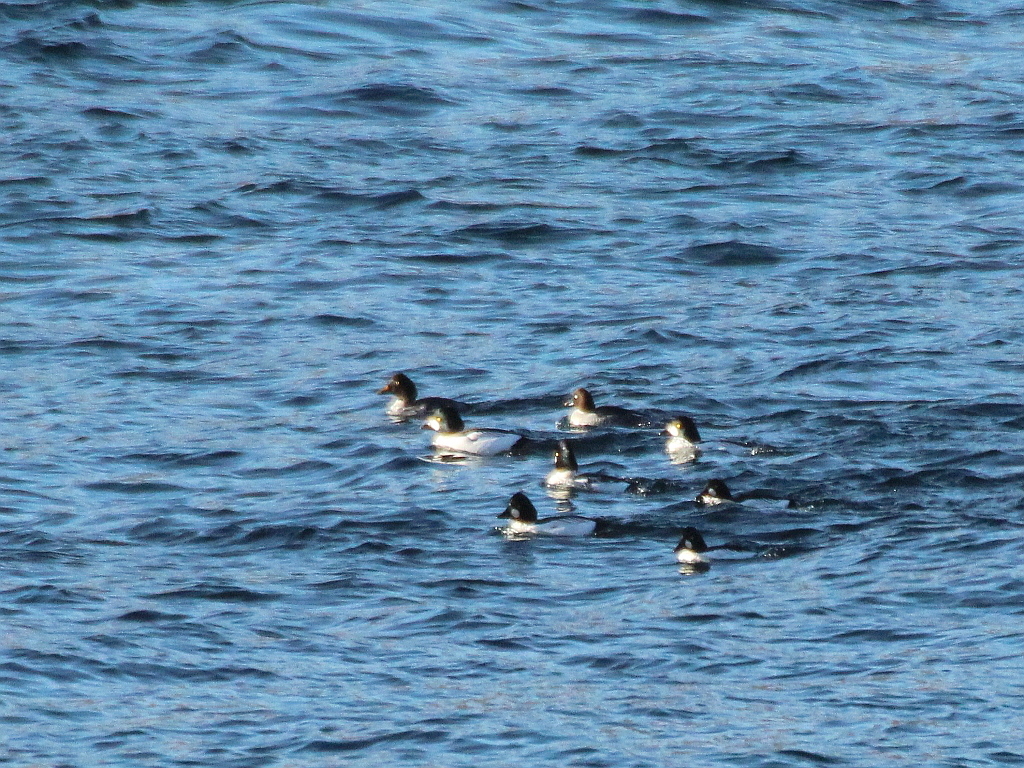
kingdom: Animalia
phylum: Chordata
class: Aves
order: Anseriformes
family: Anatidae
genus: Bucephala
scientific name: Bucephala clangula
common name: Common goldeneye
